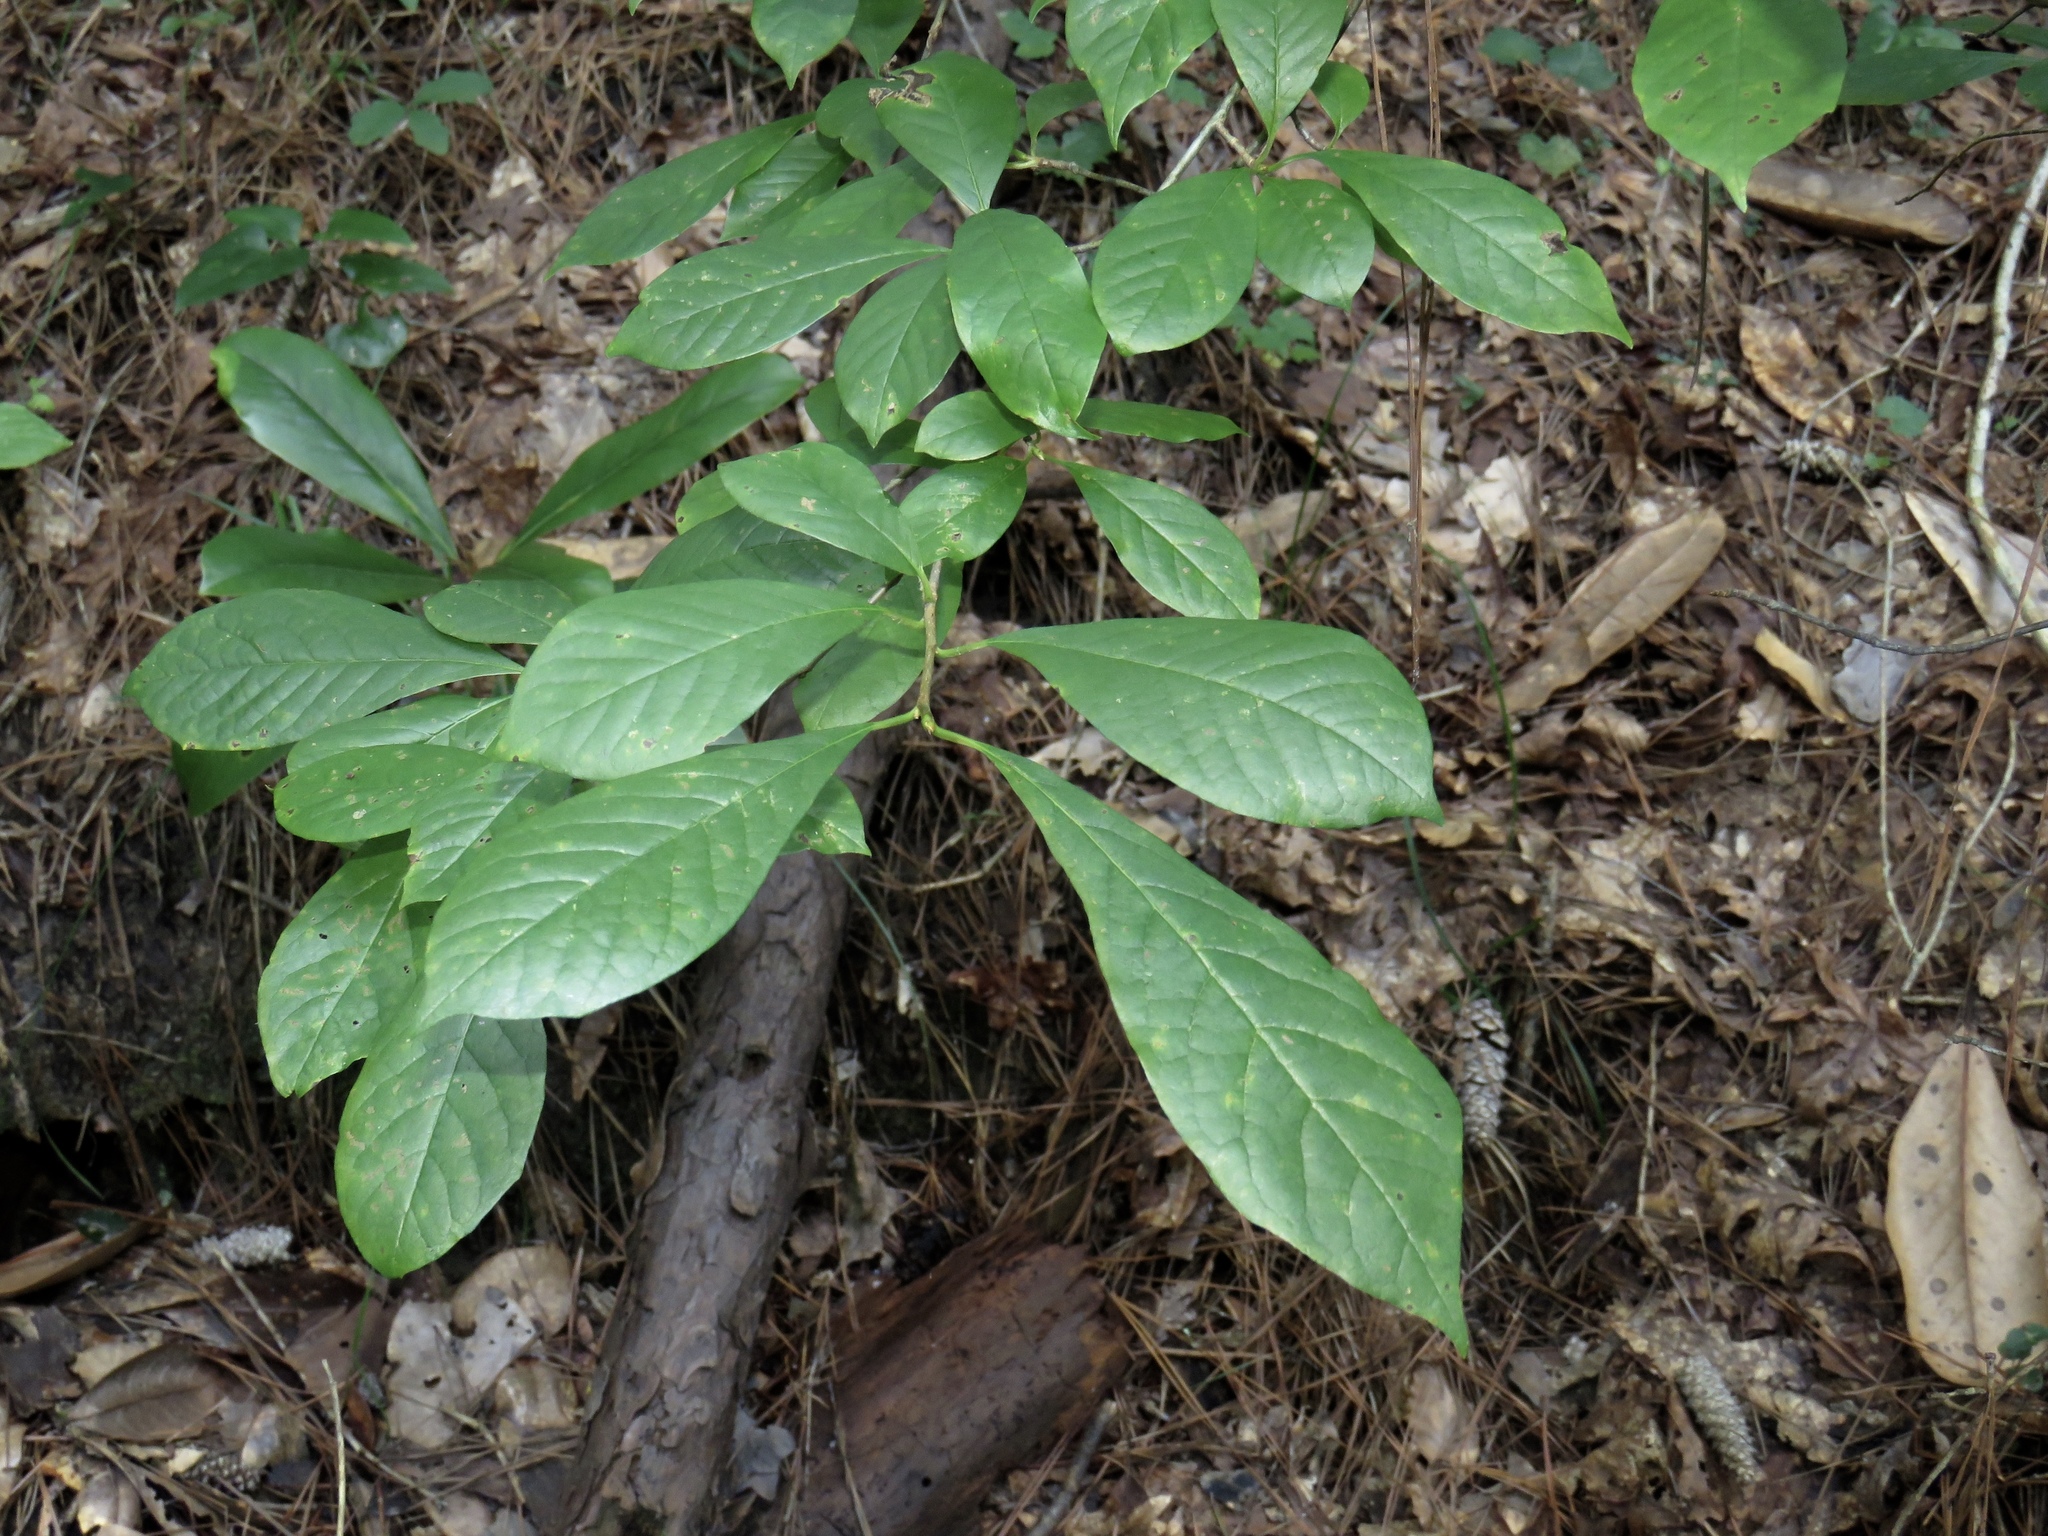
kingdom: Plantae
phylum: Tracheophyta
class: Magnoliopsida
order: Cornales
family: Nyssaceae
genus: Nyssa
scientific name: Nyssa sylvatica
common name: Black tupelo
